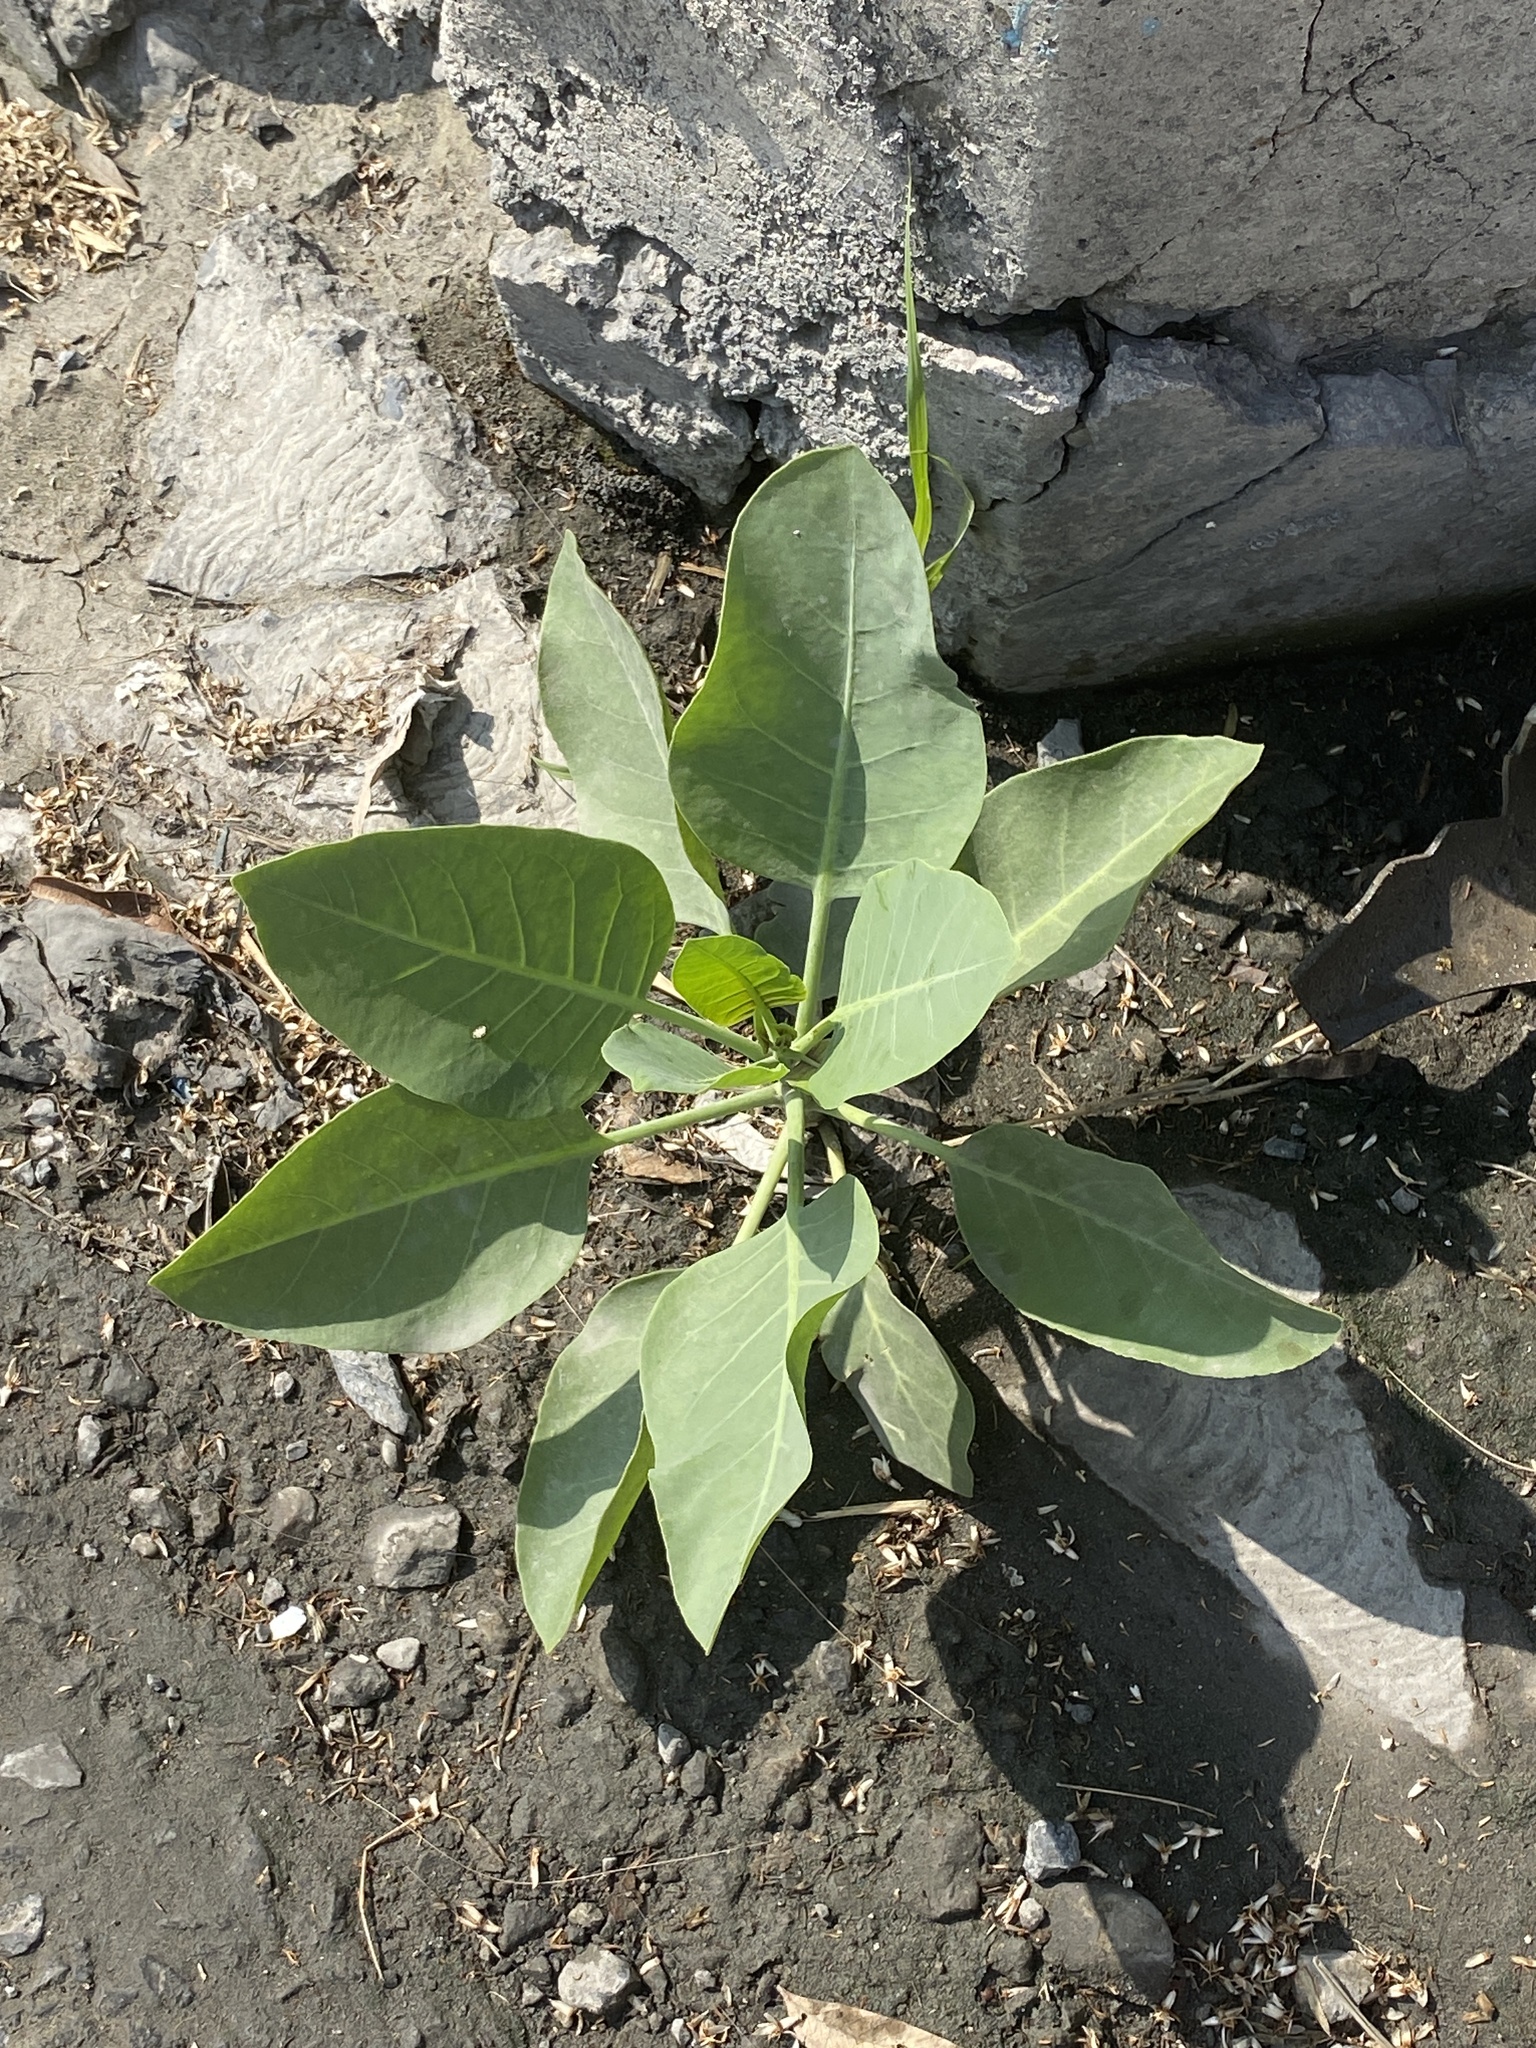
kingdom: Plantae
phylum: Tracheophyta
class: Magnoliopsida
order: Solanales
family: Solanaceae
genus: Nicotiana
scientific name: Nicotiana glauca
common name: Tree tobacco
